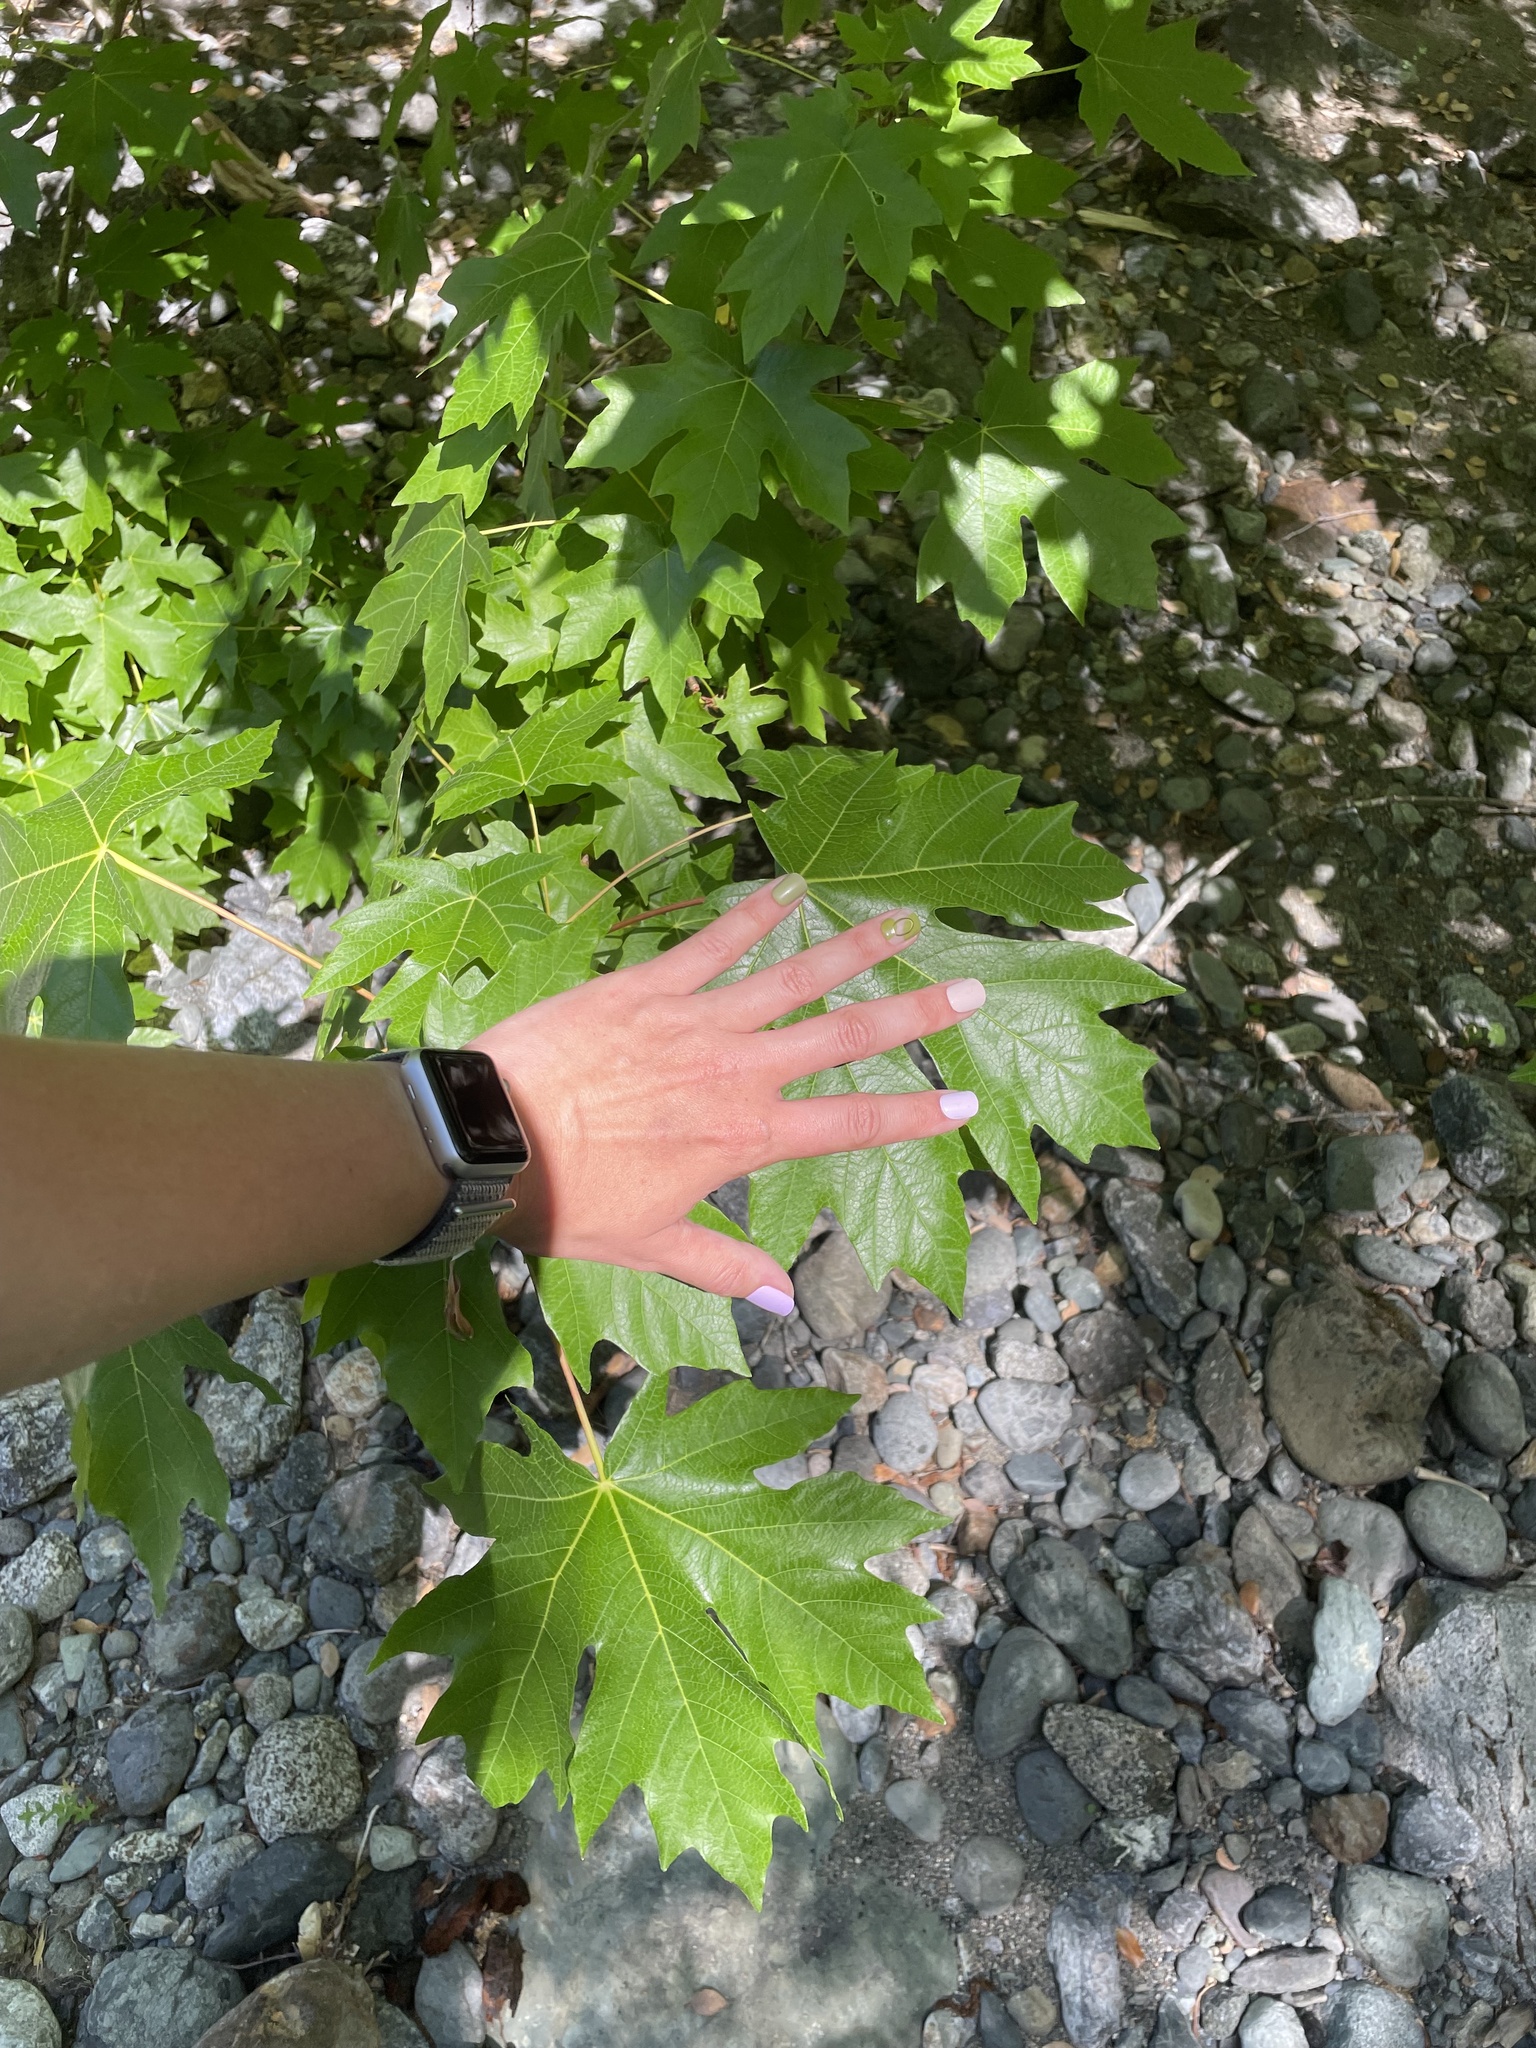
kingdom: Plantae
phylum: Tracheophyta
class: Magnoliopsida
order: Sapindales
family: Sapindaceae
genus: Acer
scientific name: Acer macrophyllum
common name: Oregon maple
